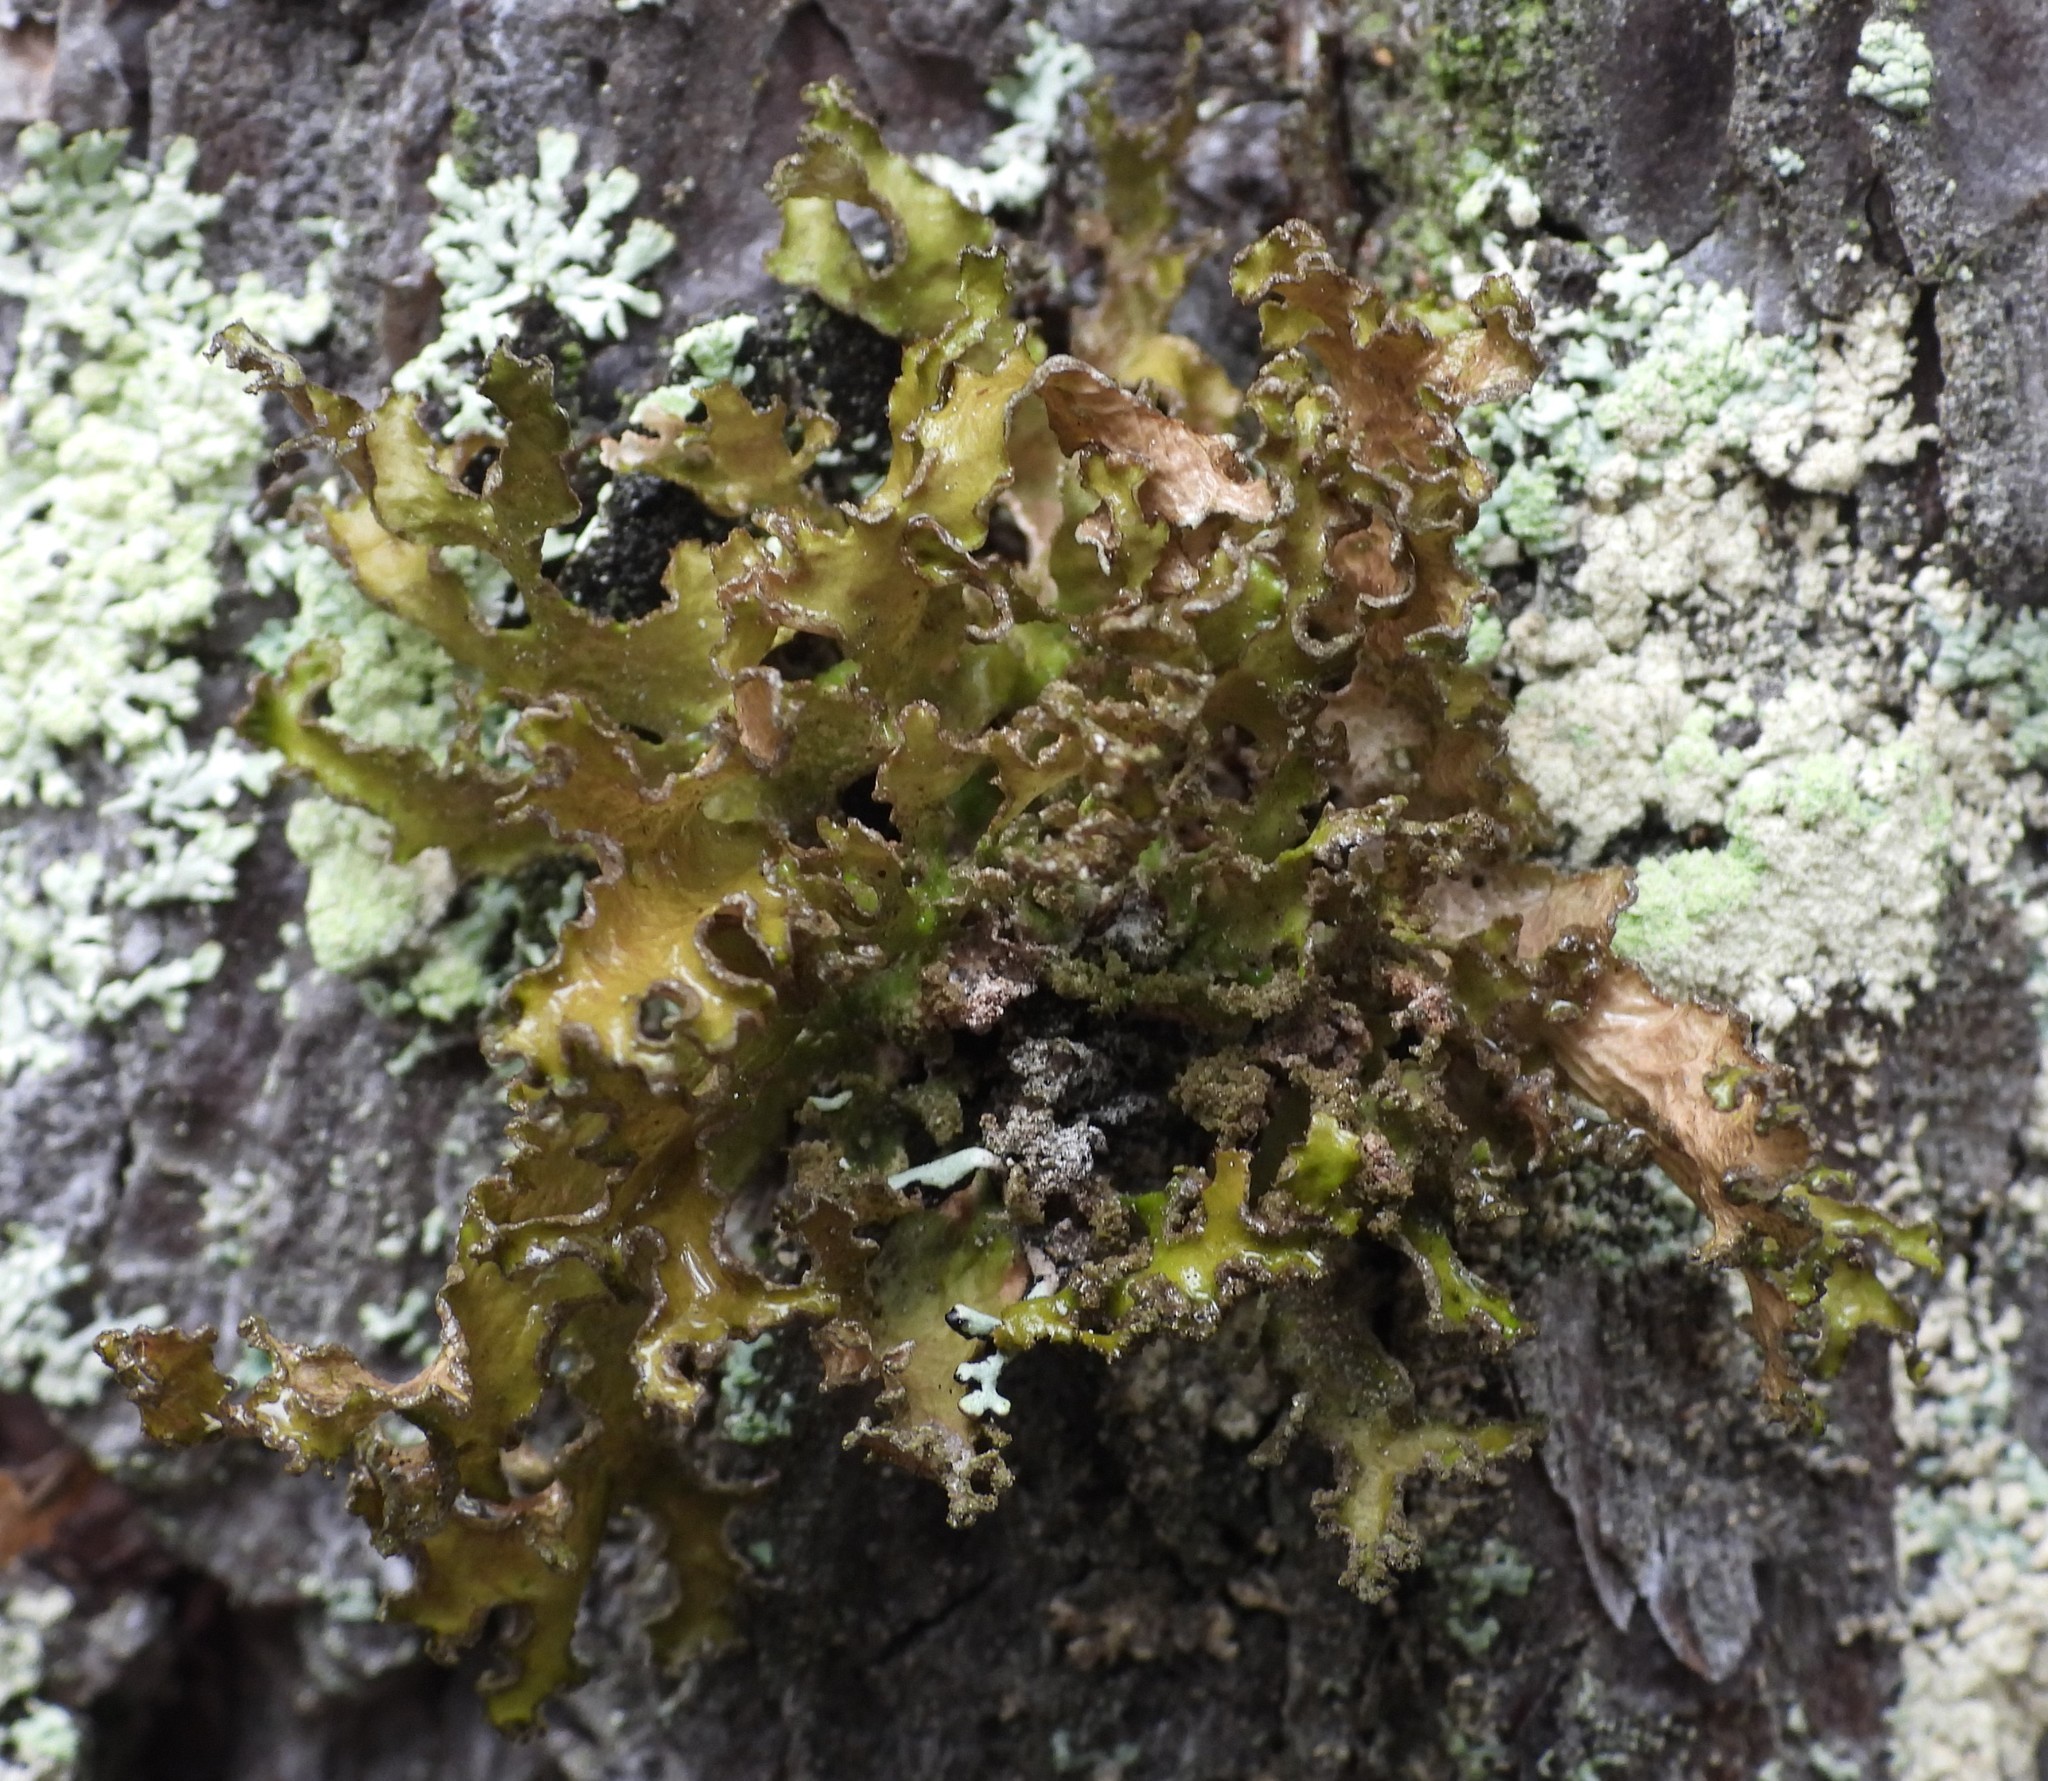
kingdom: Fungi
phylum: Ascomycota
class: Lecanoromycetes
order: Lecanorales
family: Parmeliaceae
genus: Nephromopsis
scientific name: Nephromopsis chlorophylla
